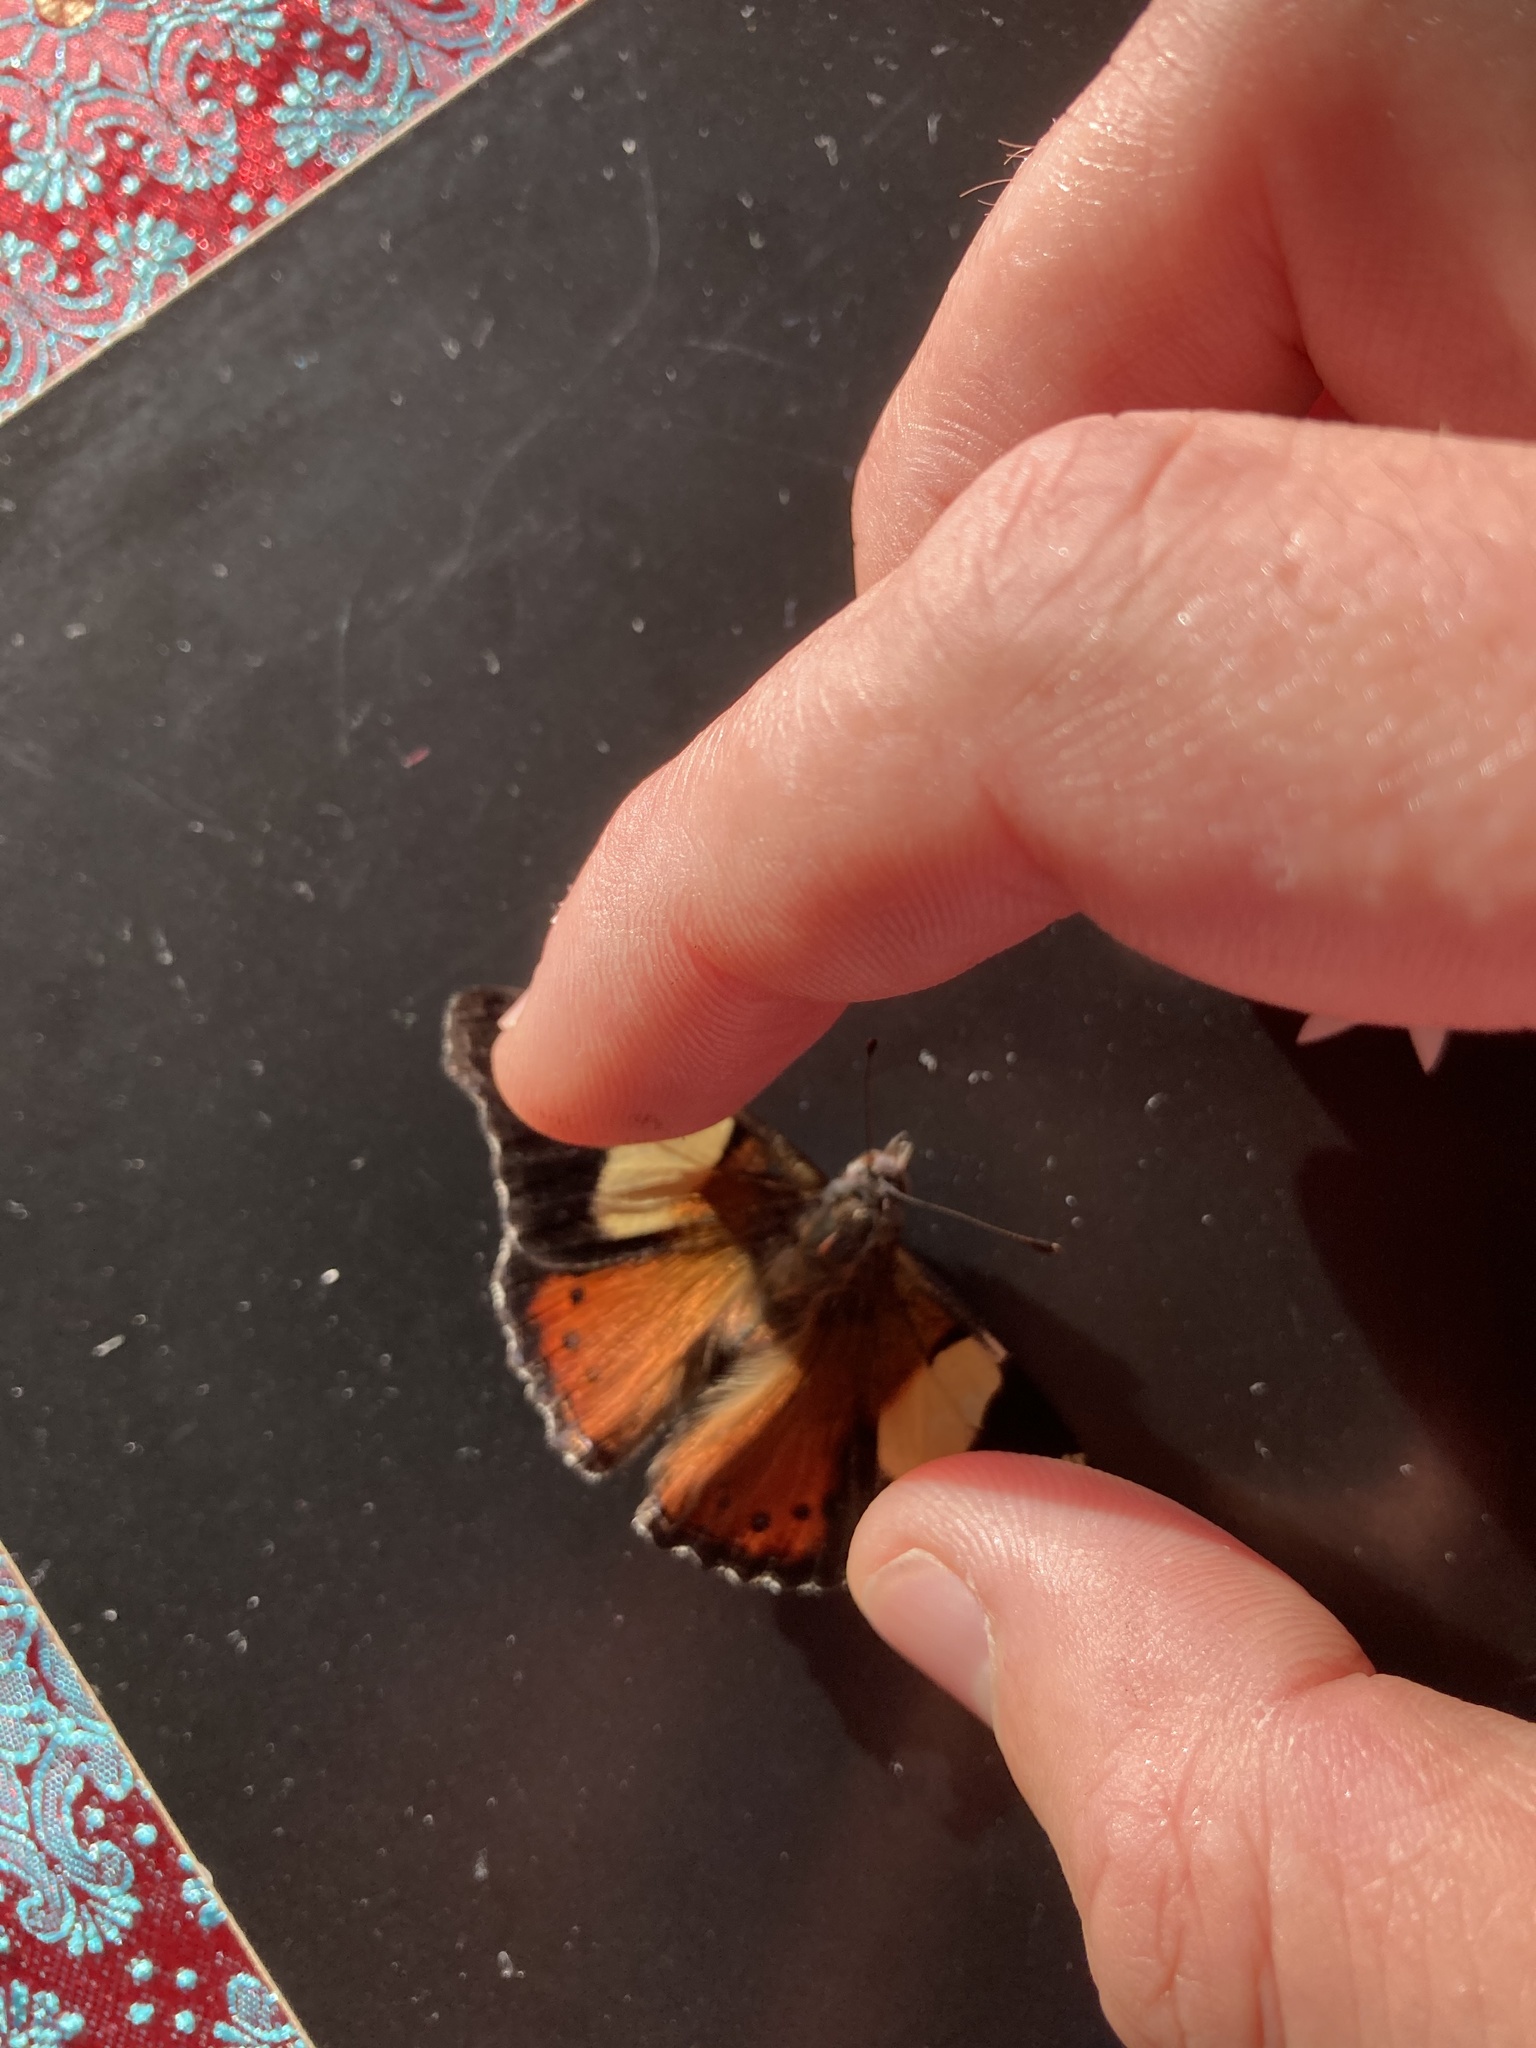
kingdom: Animalia
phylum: Arthropoda
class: Insecta
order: Lepidoptera
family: Nymphalidae
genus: Vanessa
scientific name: Vanessa itea
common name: Yellow admiral
